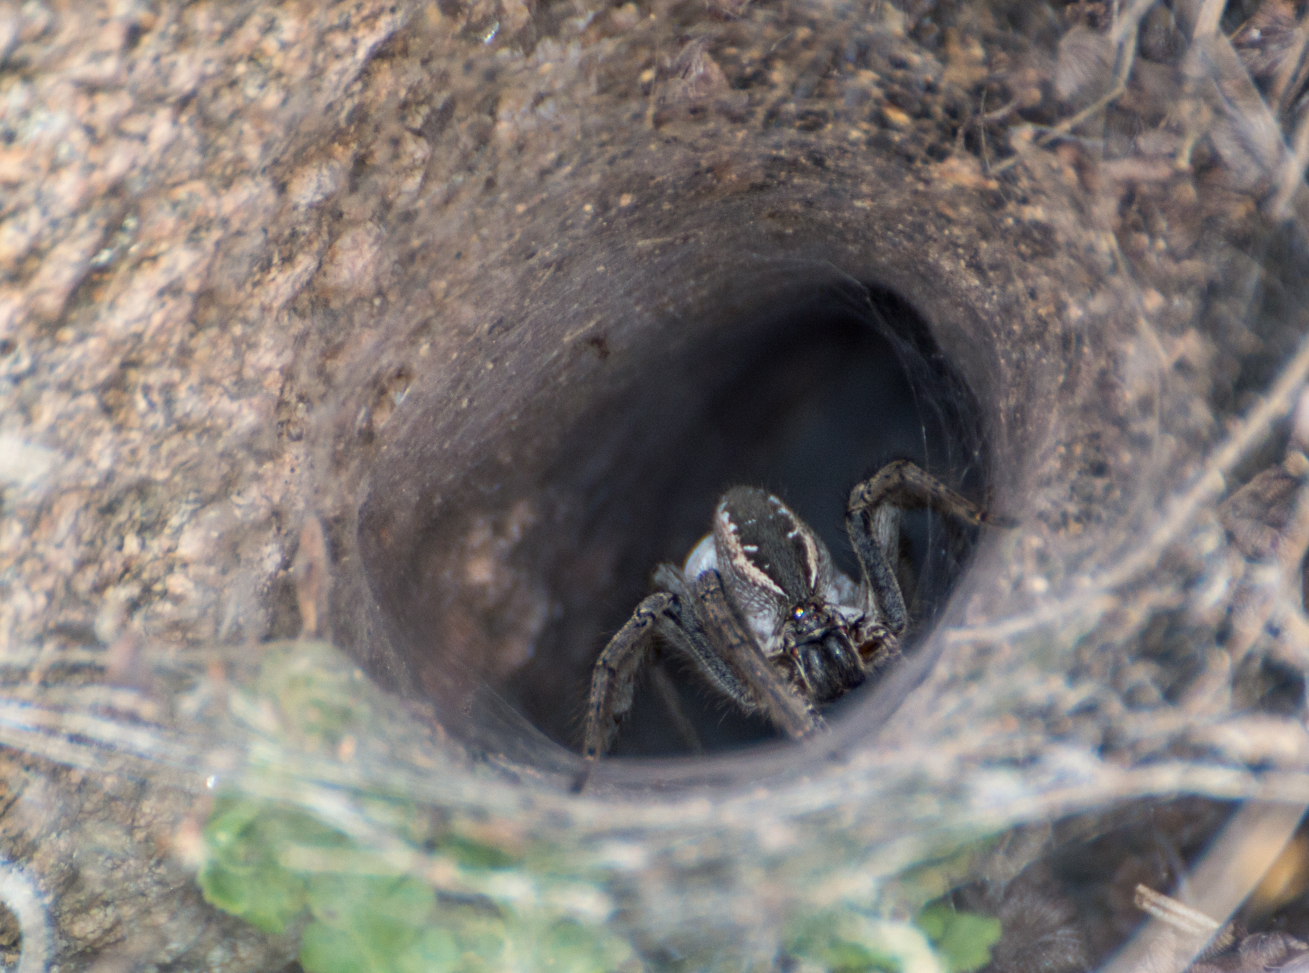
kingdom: Animalia
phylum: Arthropoda
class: Arachnida
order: Araneae
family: Lycosidae
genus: Aglaoctenus
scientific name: Aglaoctenus lagotis
